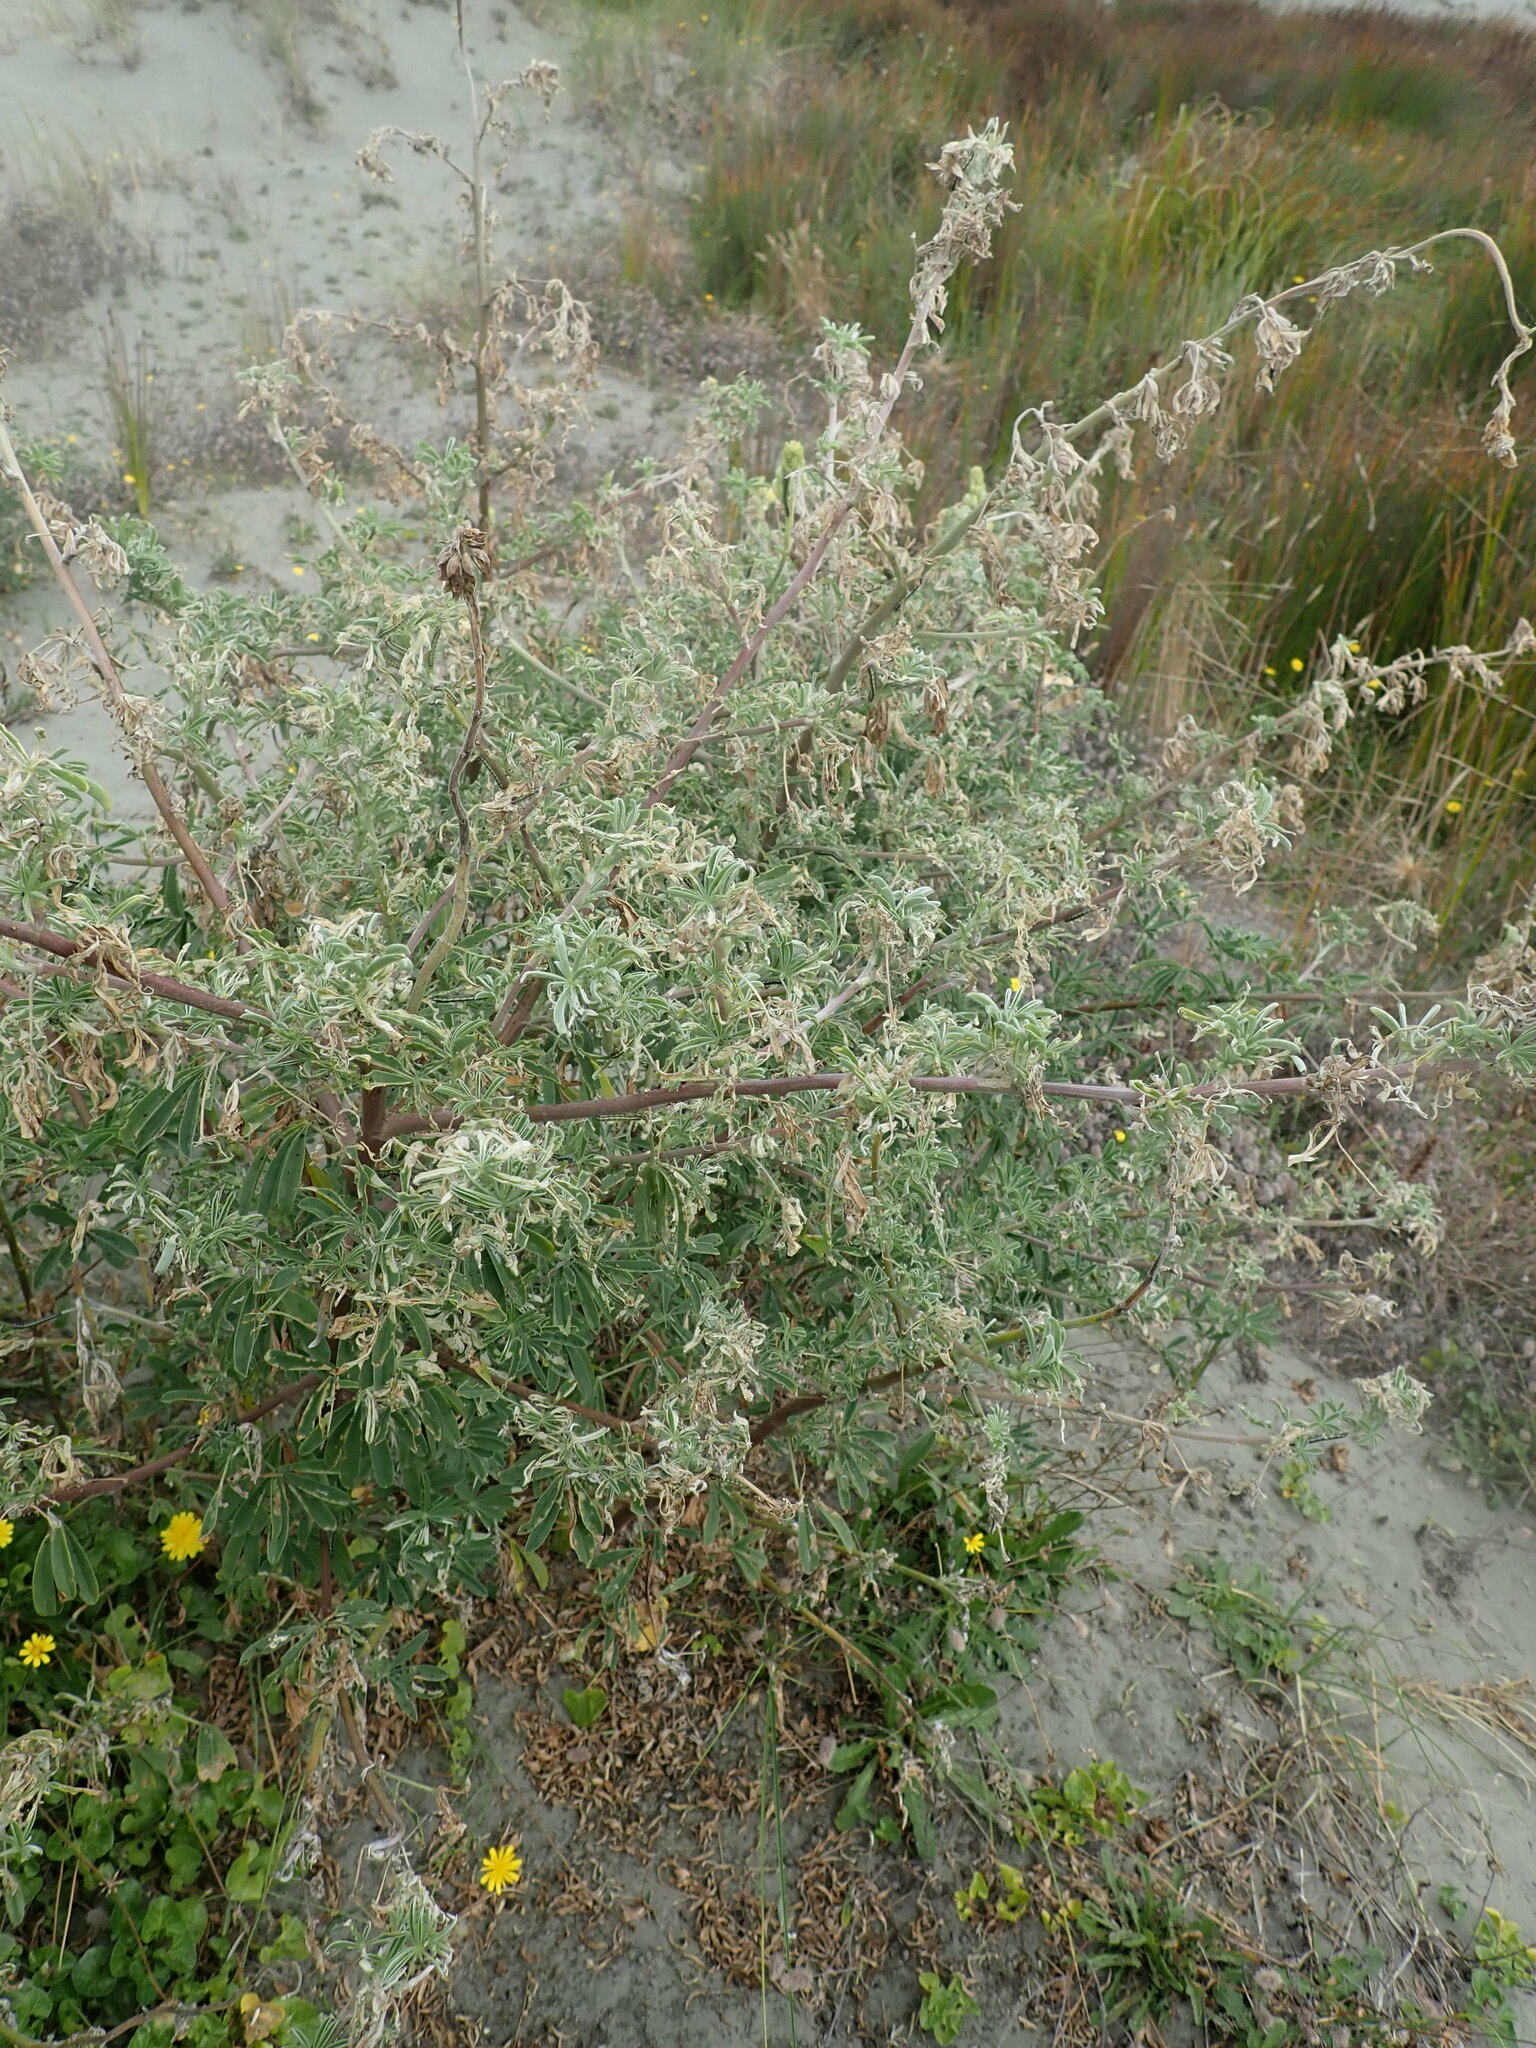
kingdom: Plantae
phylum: Tracheophyta
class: Magnoliopsida
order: Fabales
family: Fabaceae
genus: Lupinus
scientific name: Lupinus arboreus
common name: Yellow bush lupine
